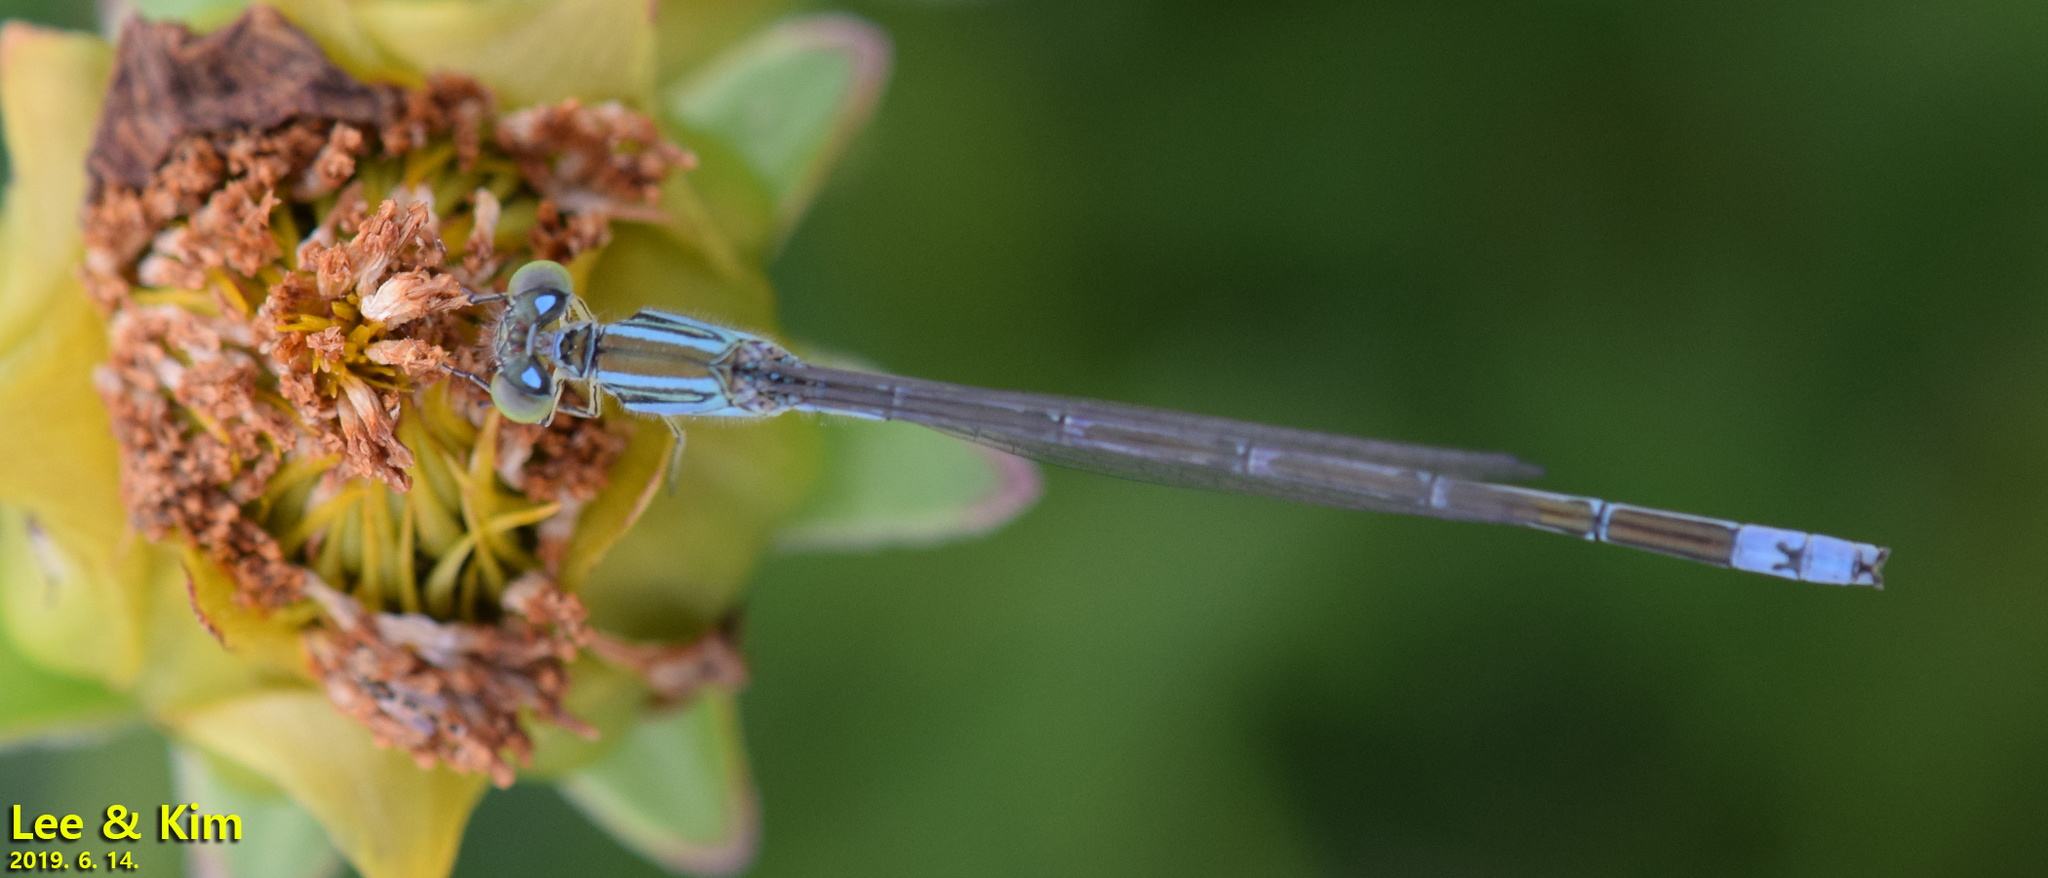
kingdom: Animalia
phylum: Arthropoda
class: Insecta
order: Odonata
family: Coenagrionidae
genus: Paracercion
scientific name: Paracercion v-nigrum
